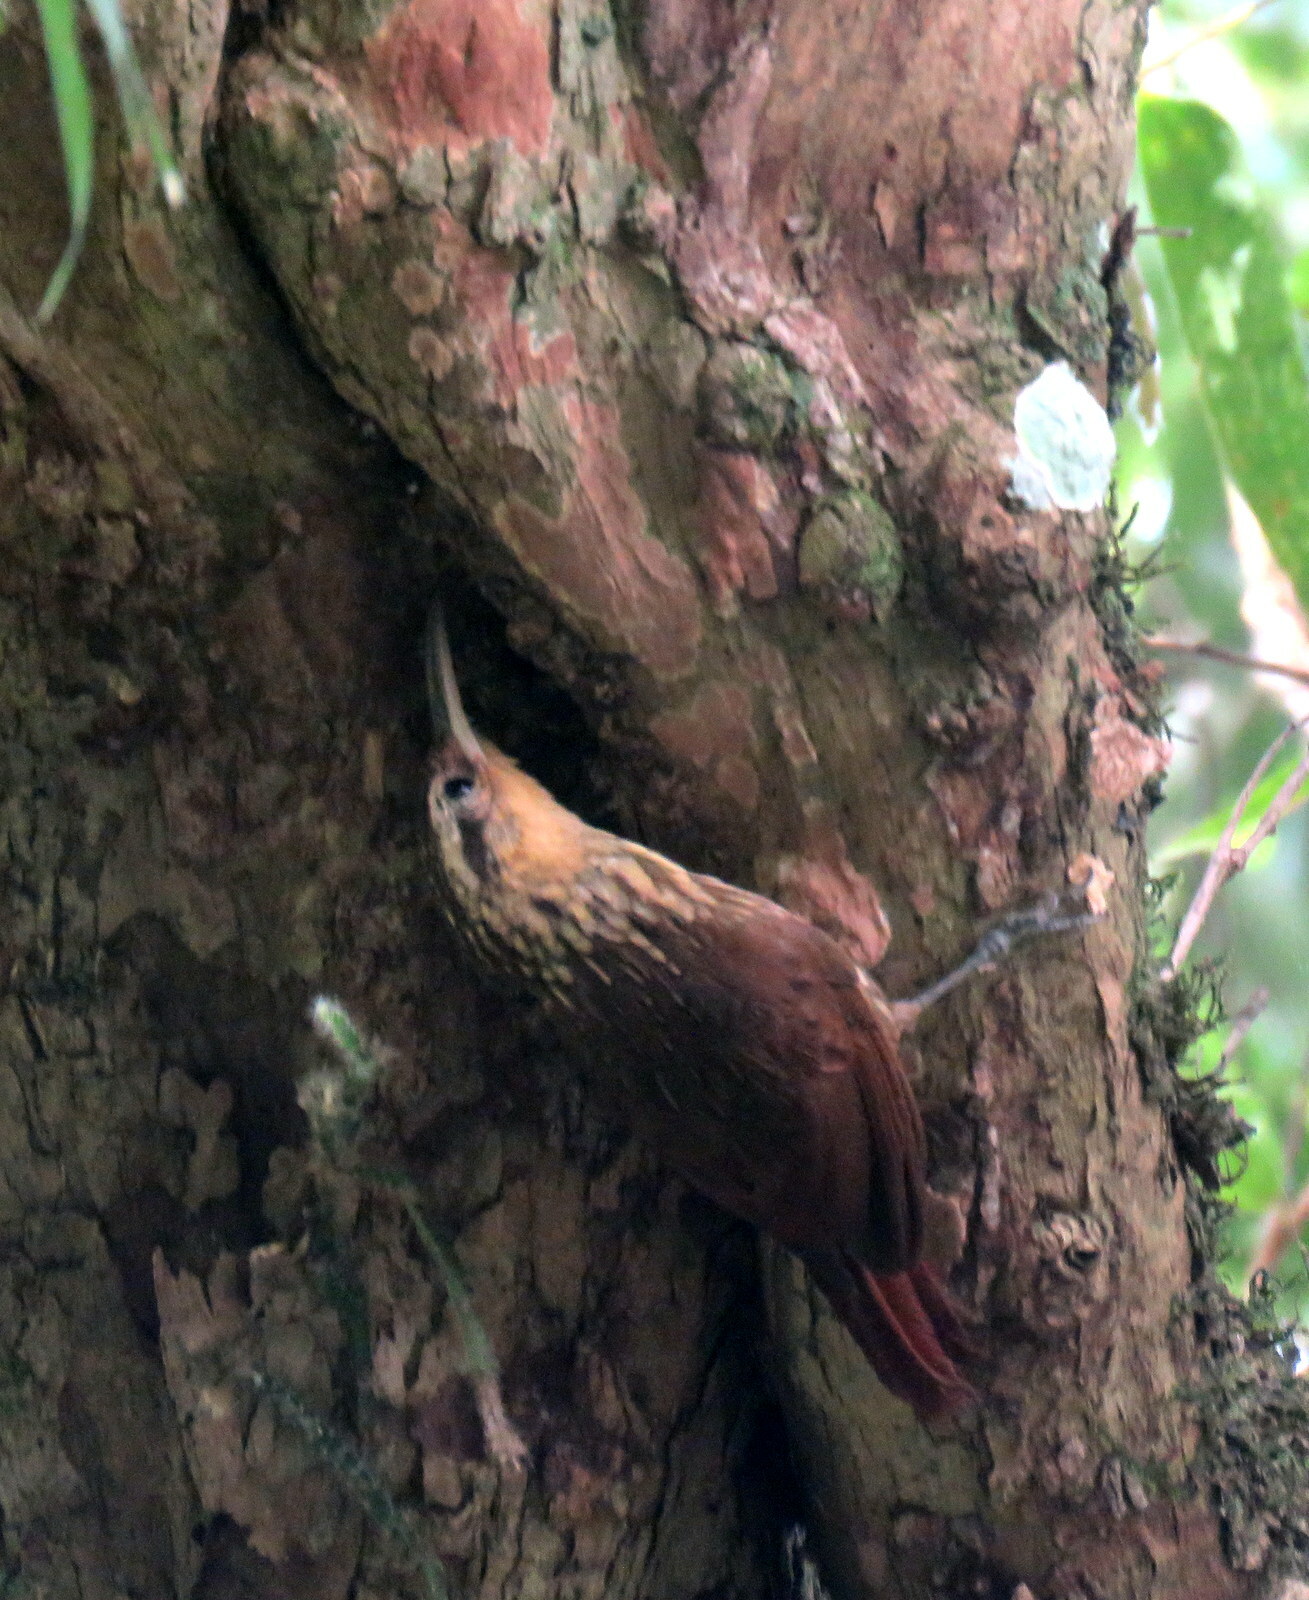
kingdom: Animalia
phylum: Chordata
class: Aves
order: Passeriformes
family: Furnariidae
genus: Xiphorhynchus
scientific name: Xiphorhynchus fuscus
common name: Lesser woodcreeper
